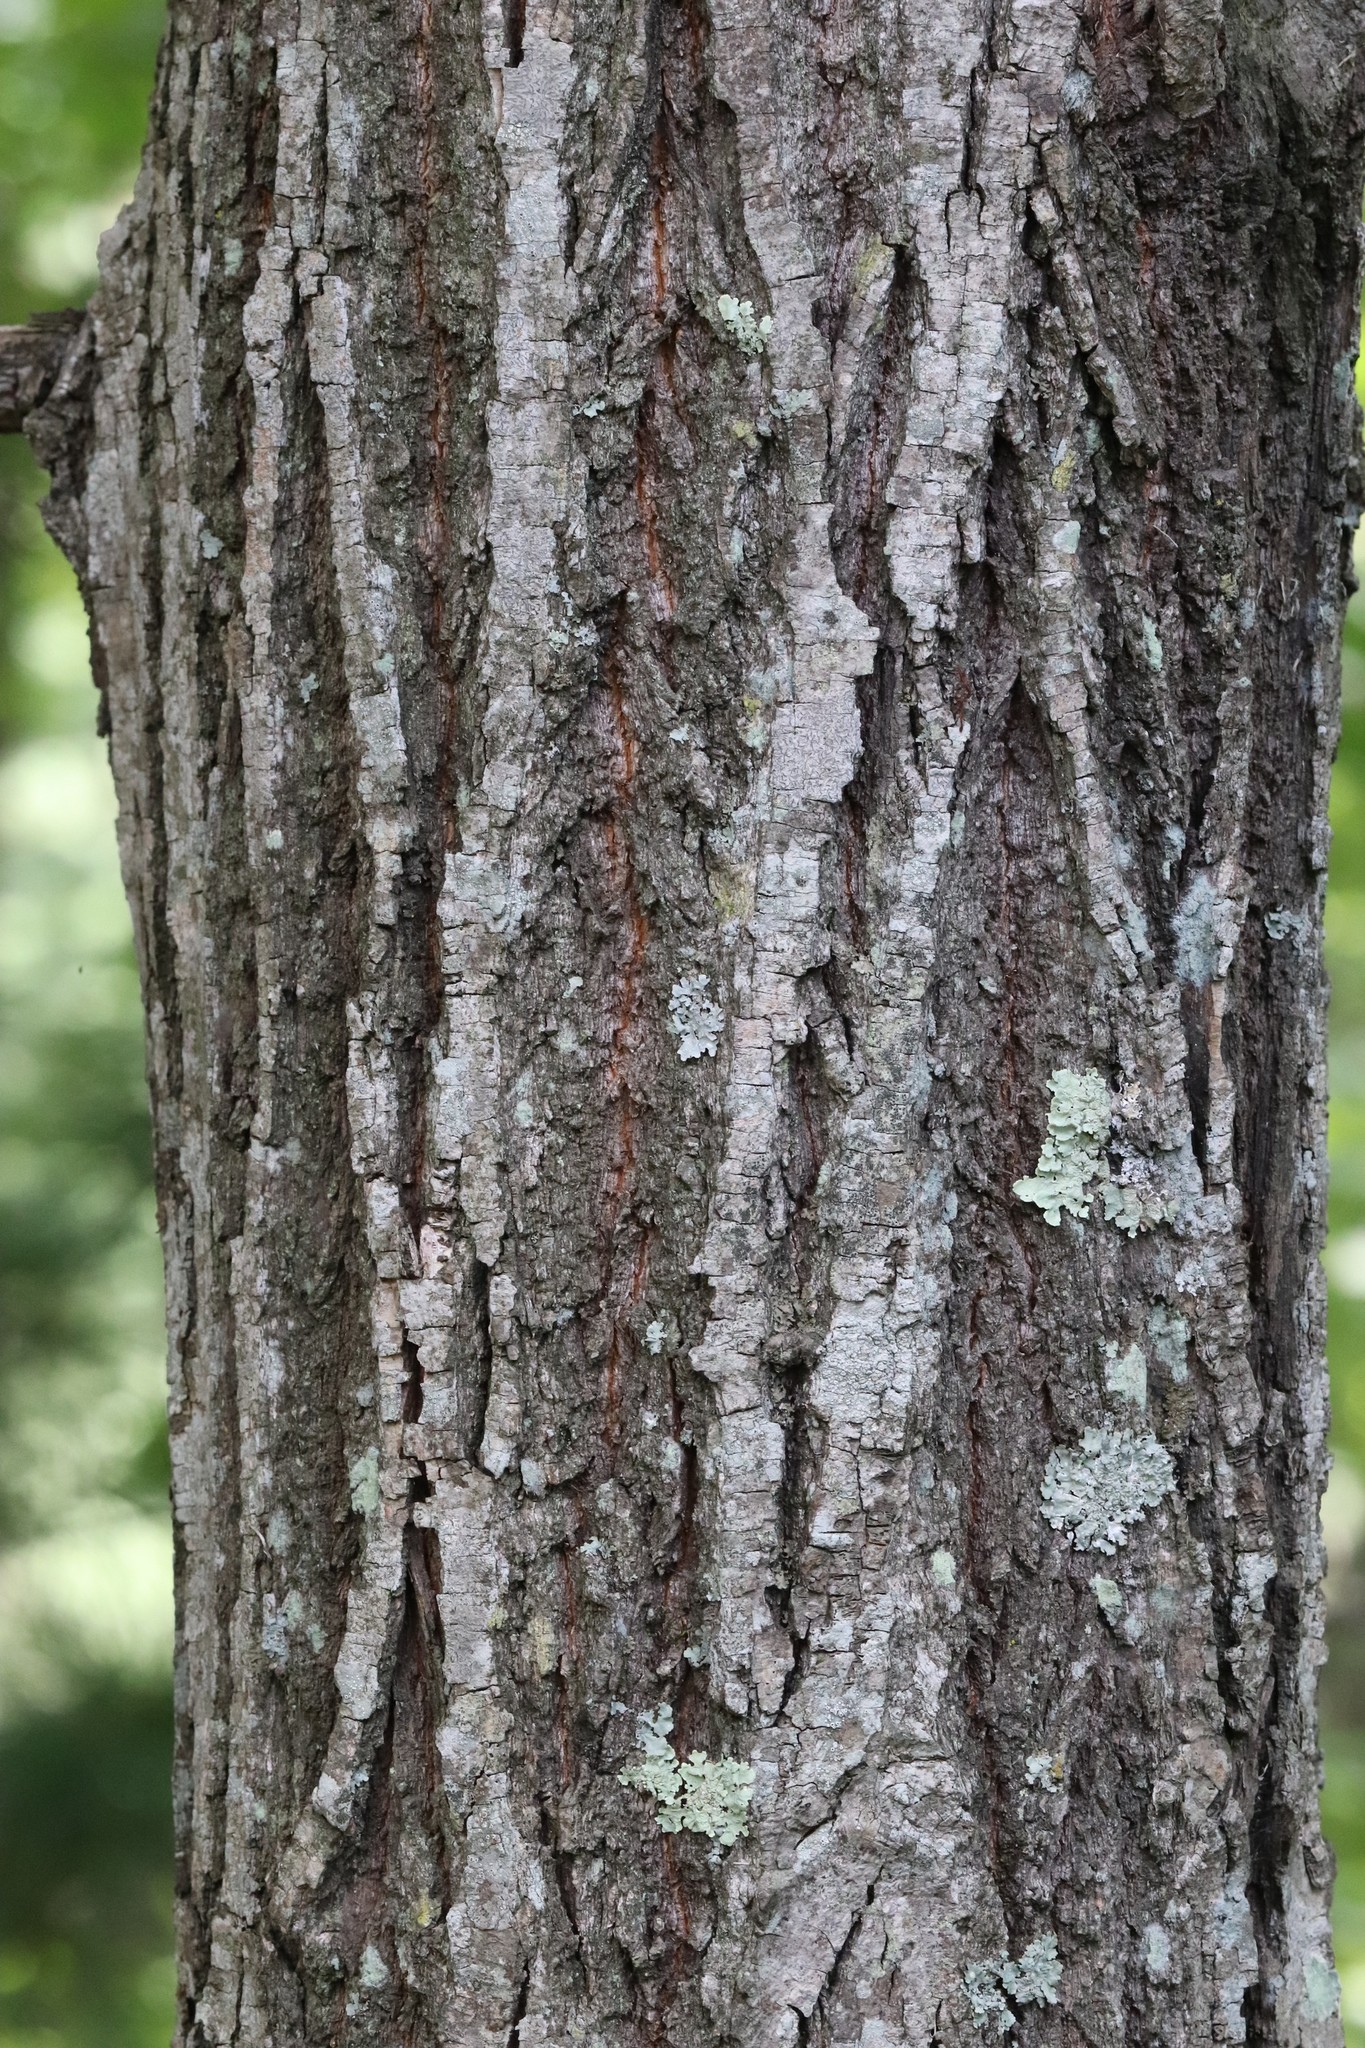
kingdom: Plantae
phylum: Tracheophyta
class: Magnoliopsida
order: Malvales
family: Malvaceae
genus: Tilia
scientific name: Tilia mandshurica
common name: Manchurian linden
